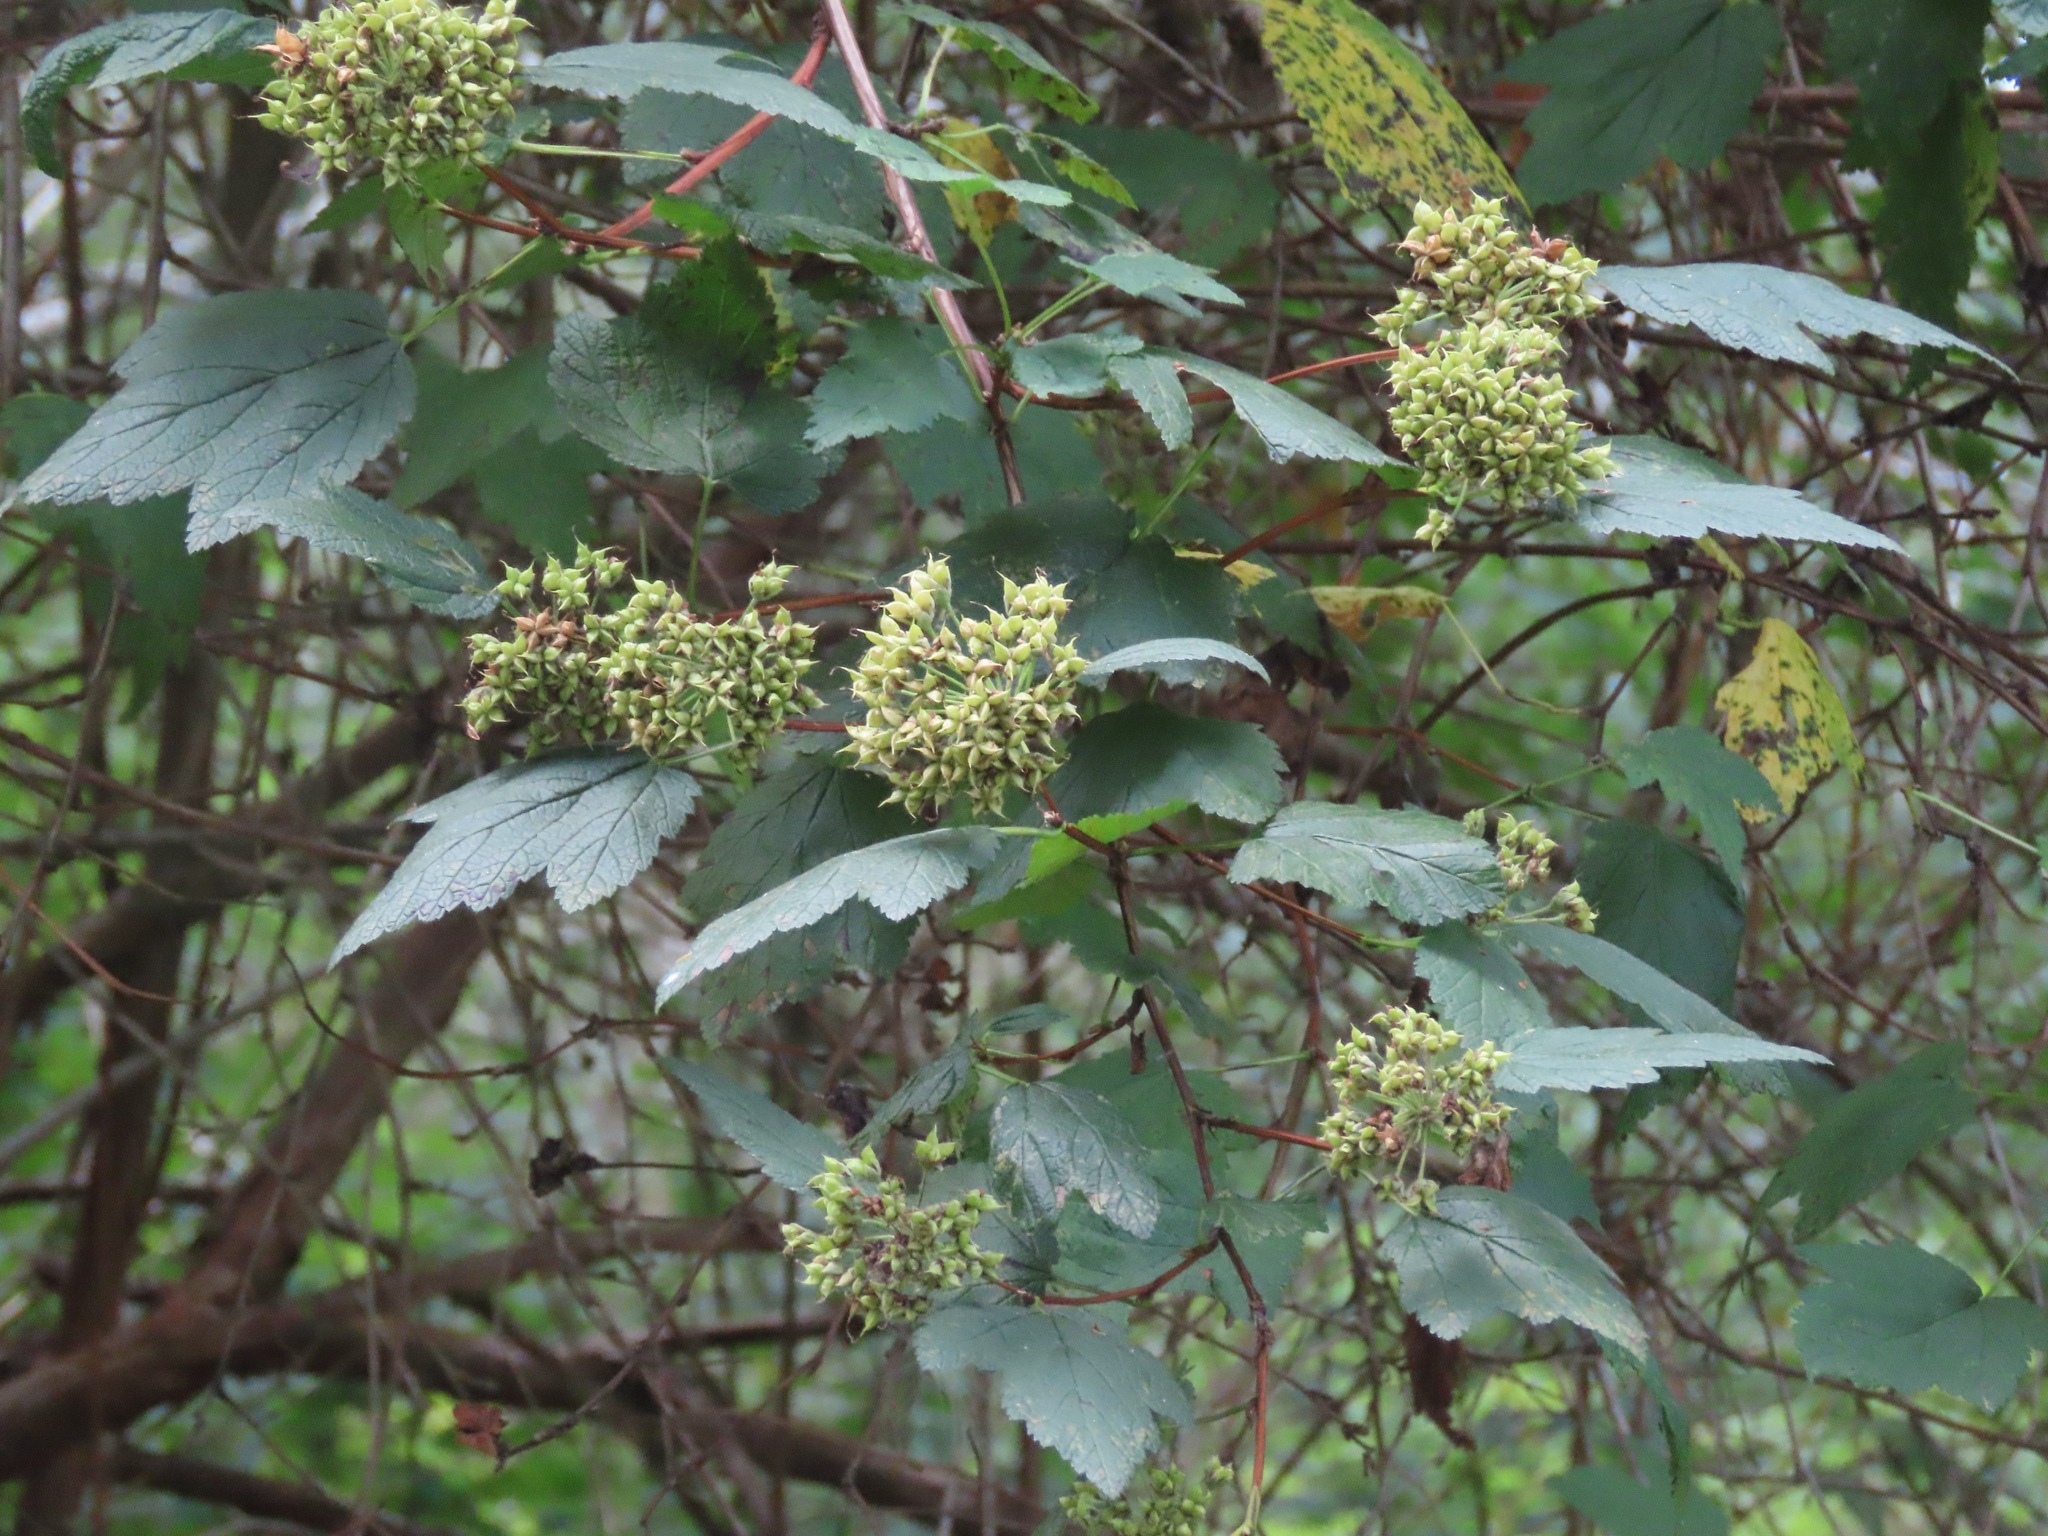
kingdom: Plantae
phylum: Tracheophyta
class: Magnoliopsida
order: Rosales
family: Rosaceae
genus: Physocarpus
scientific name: Physocarpus capitatus
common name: Pacific ninebark
